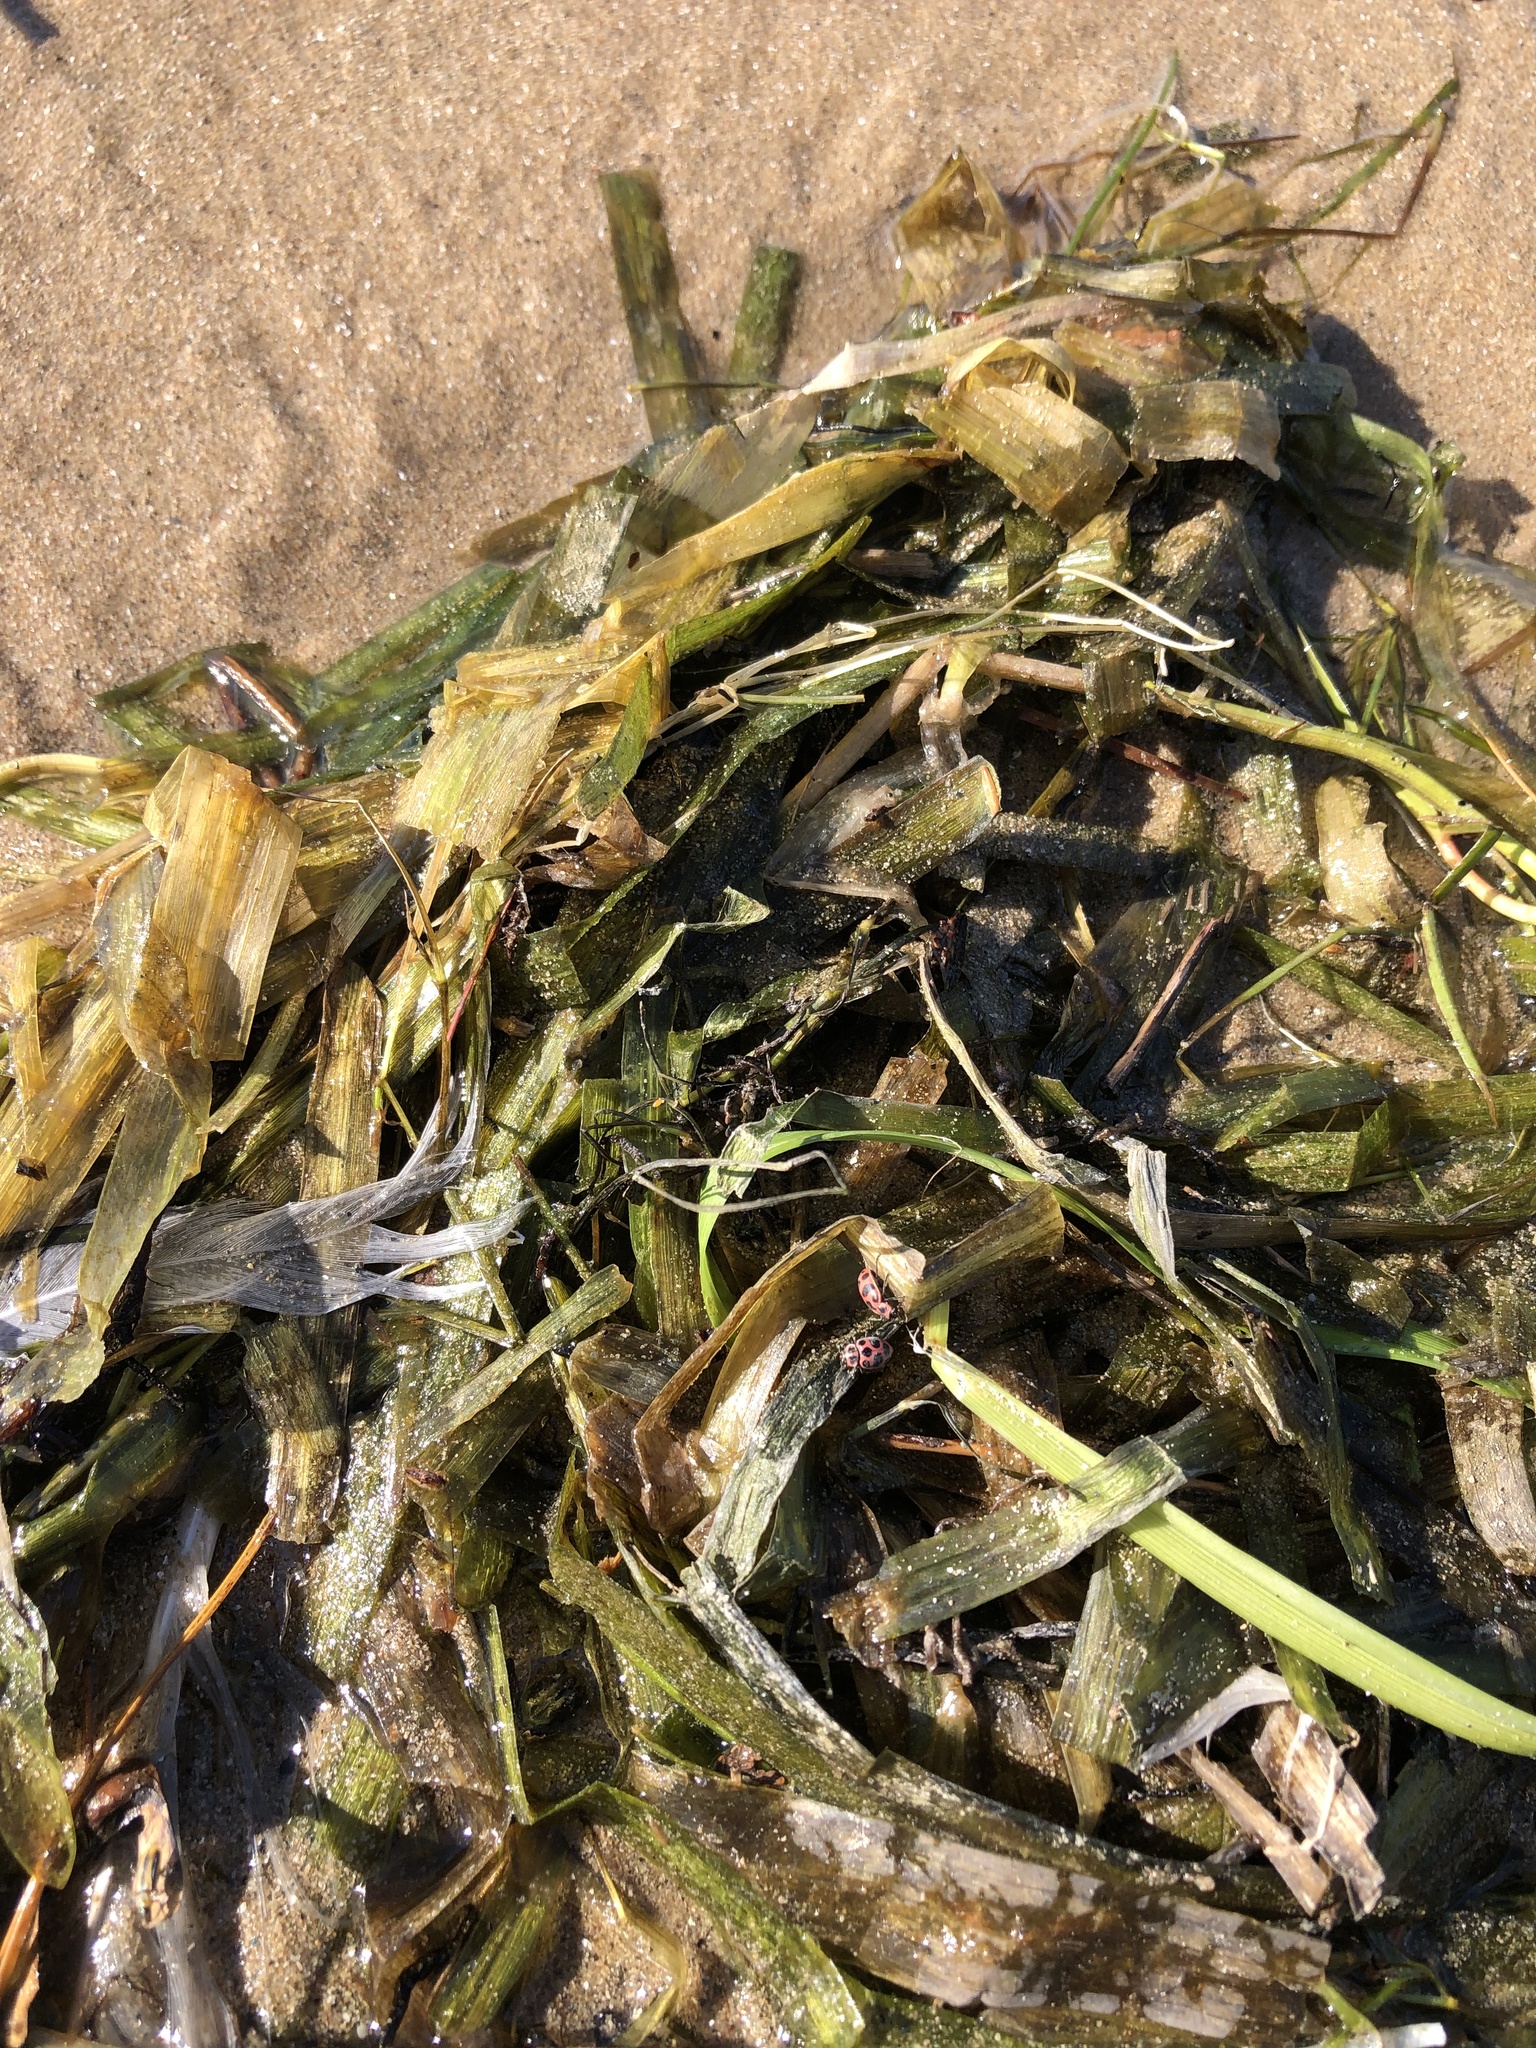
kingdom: Plantae
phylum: Tracheophyta
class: Liliopsida
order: Alismatales
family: Hydrocharitaceae
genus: Vallisneria
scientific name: Vallisneria americana
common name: American eelgrass
